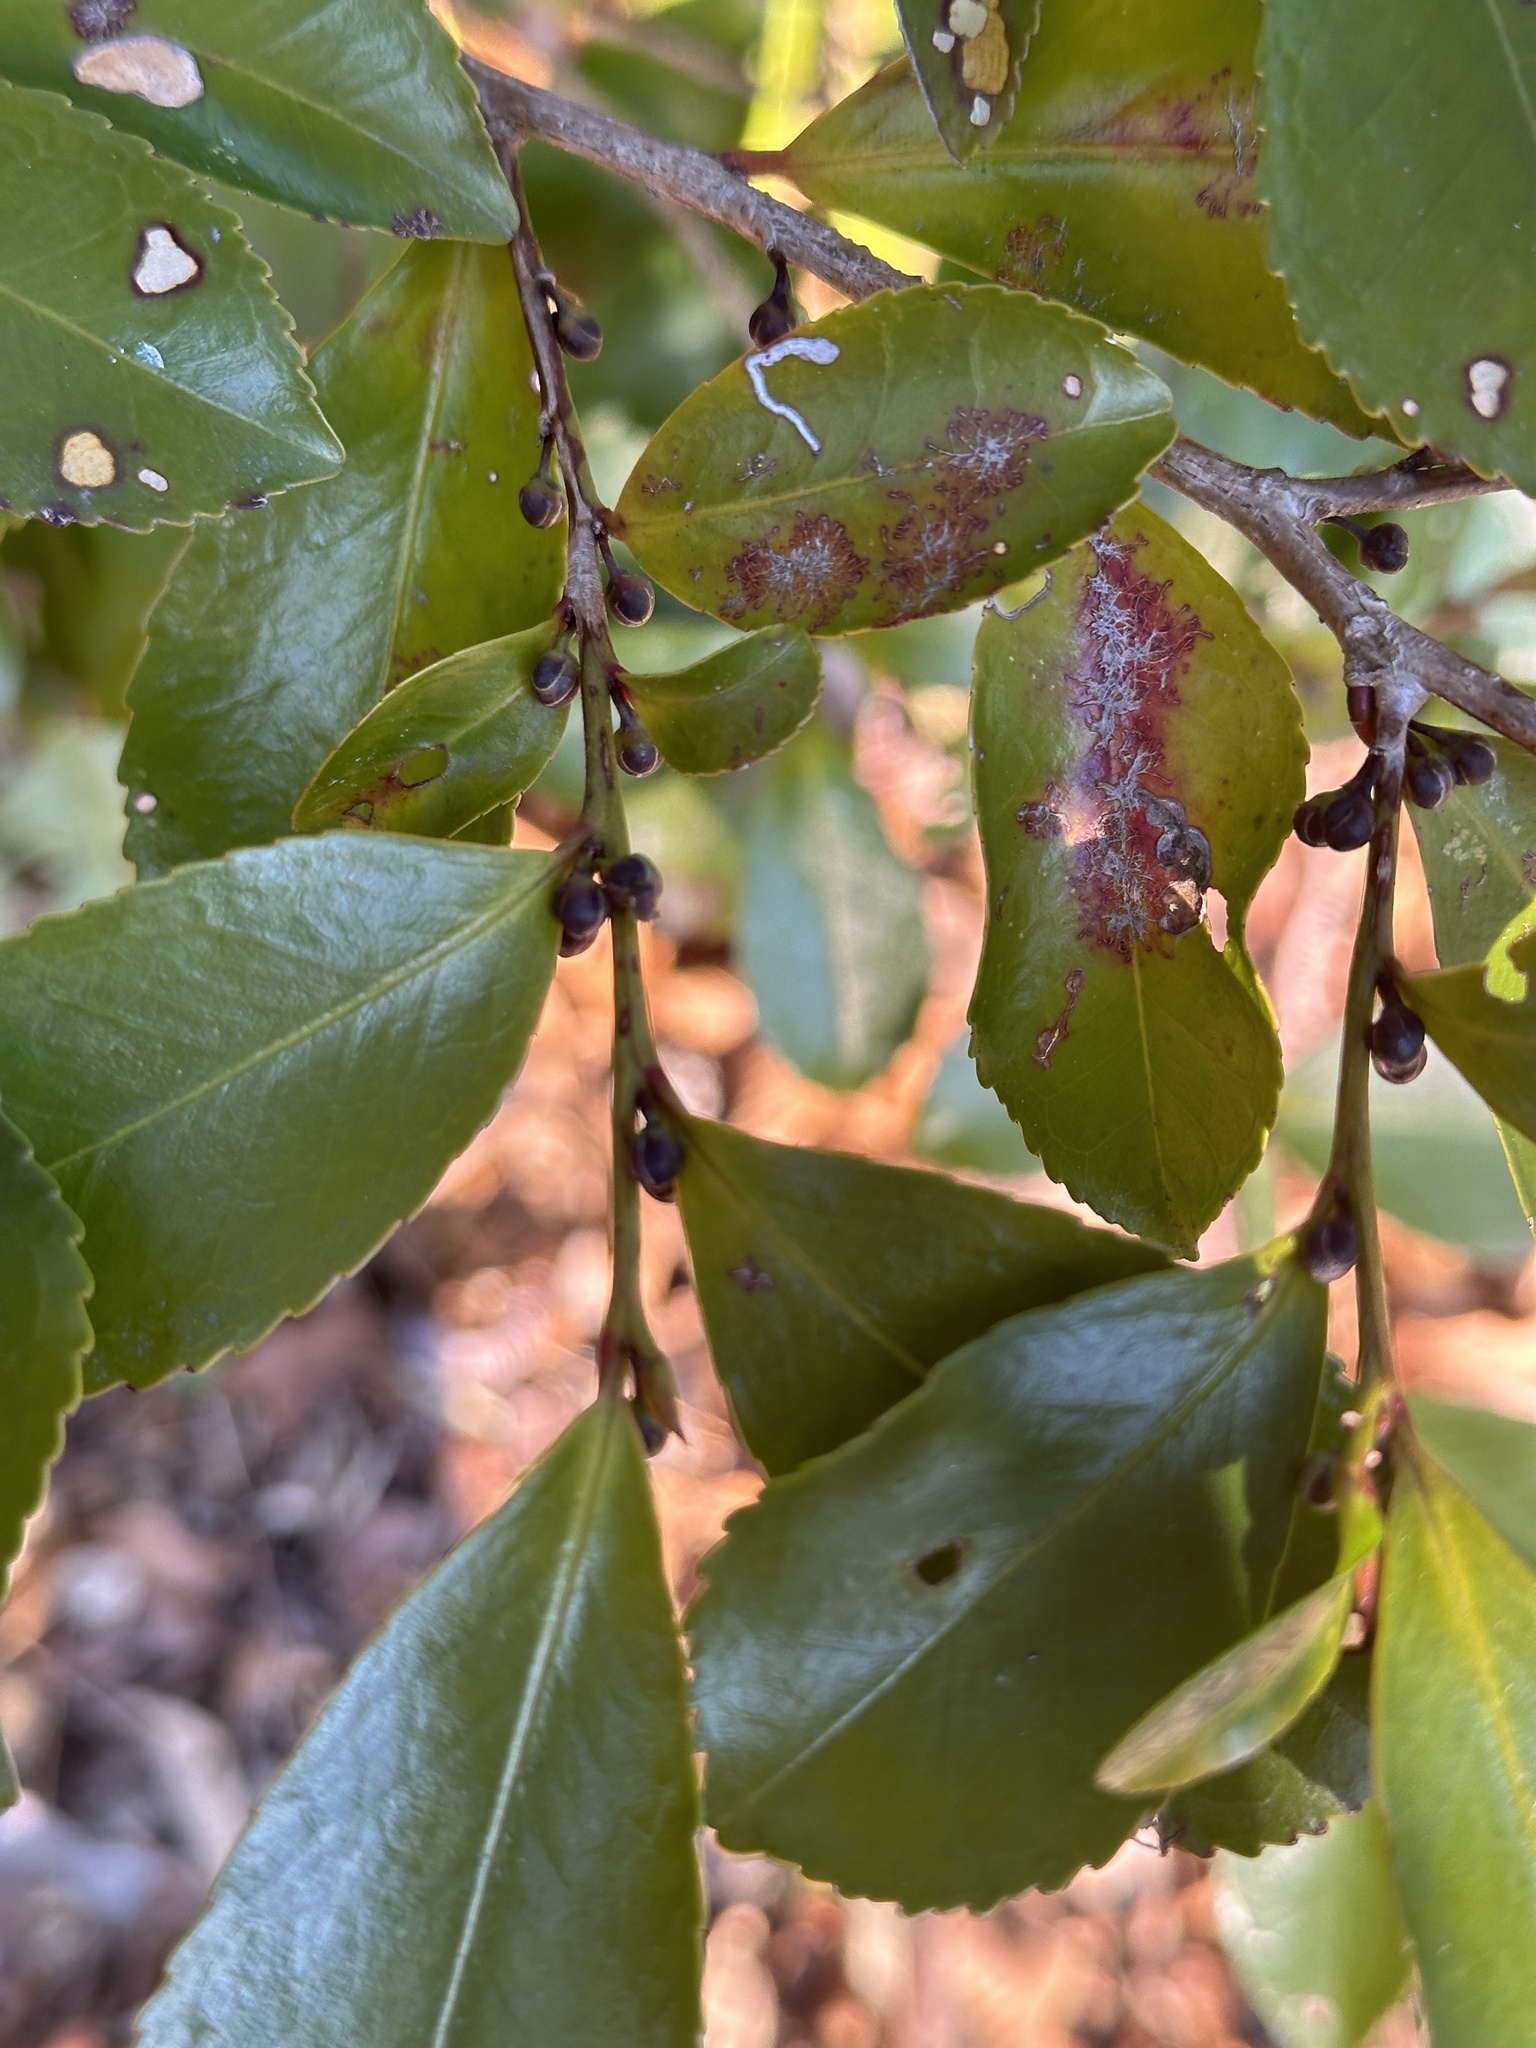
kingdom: Plantae
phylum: Tracheophyta
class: Magnoliopsida
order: Ericales
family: Pentaphylacaceae
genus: Eurya
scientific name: Eurya japonica
